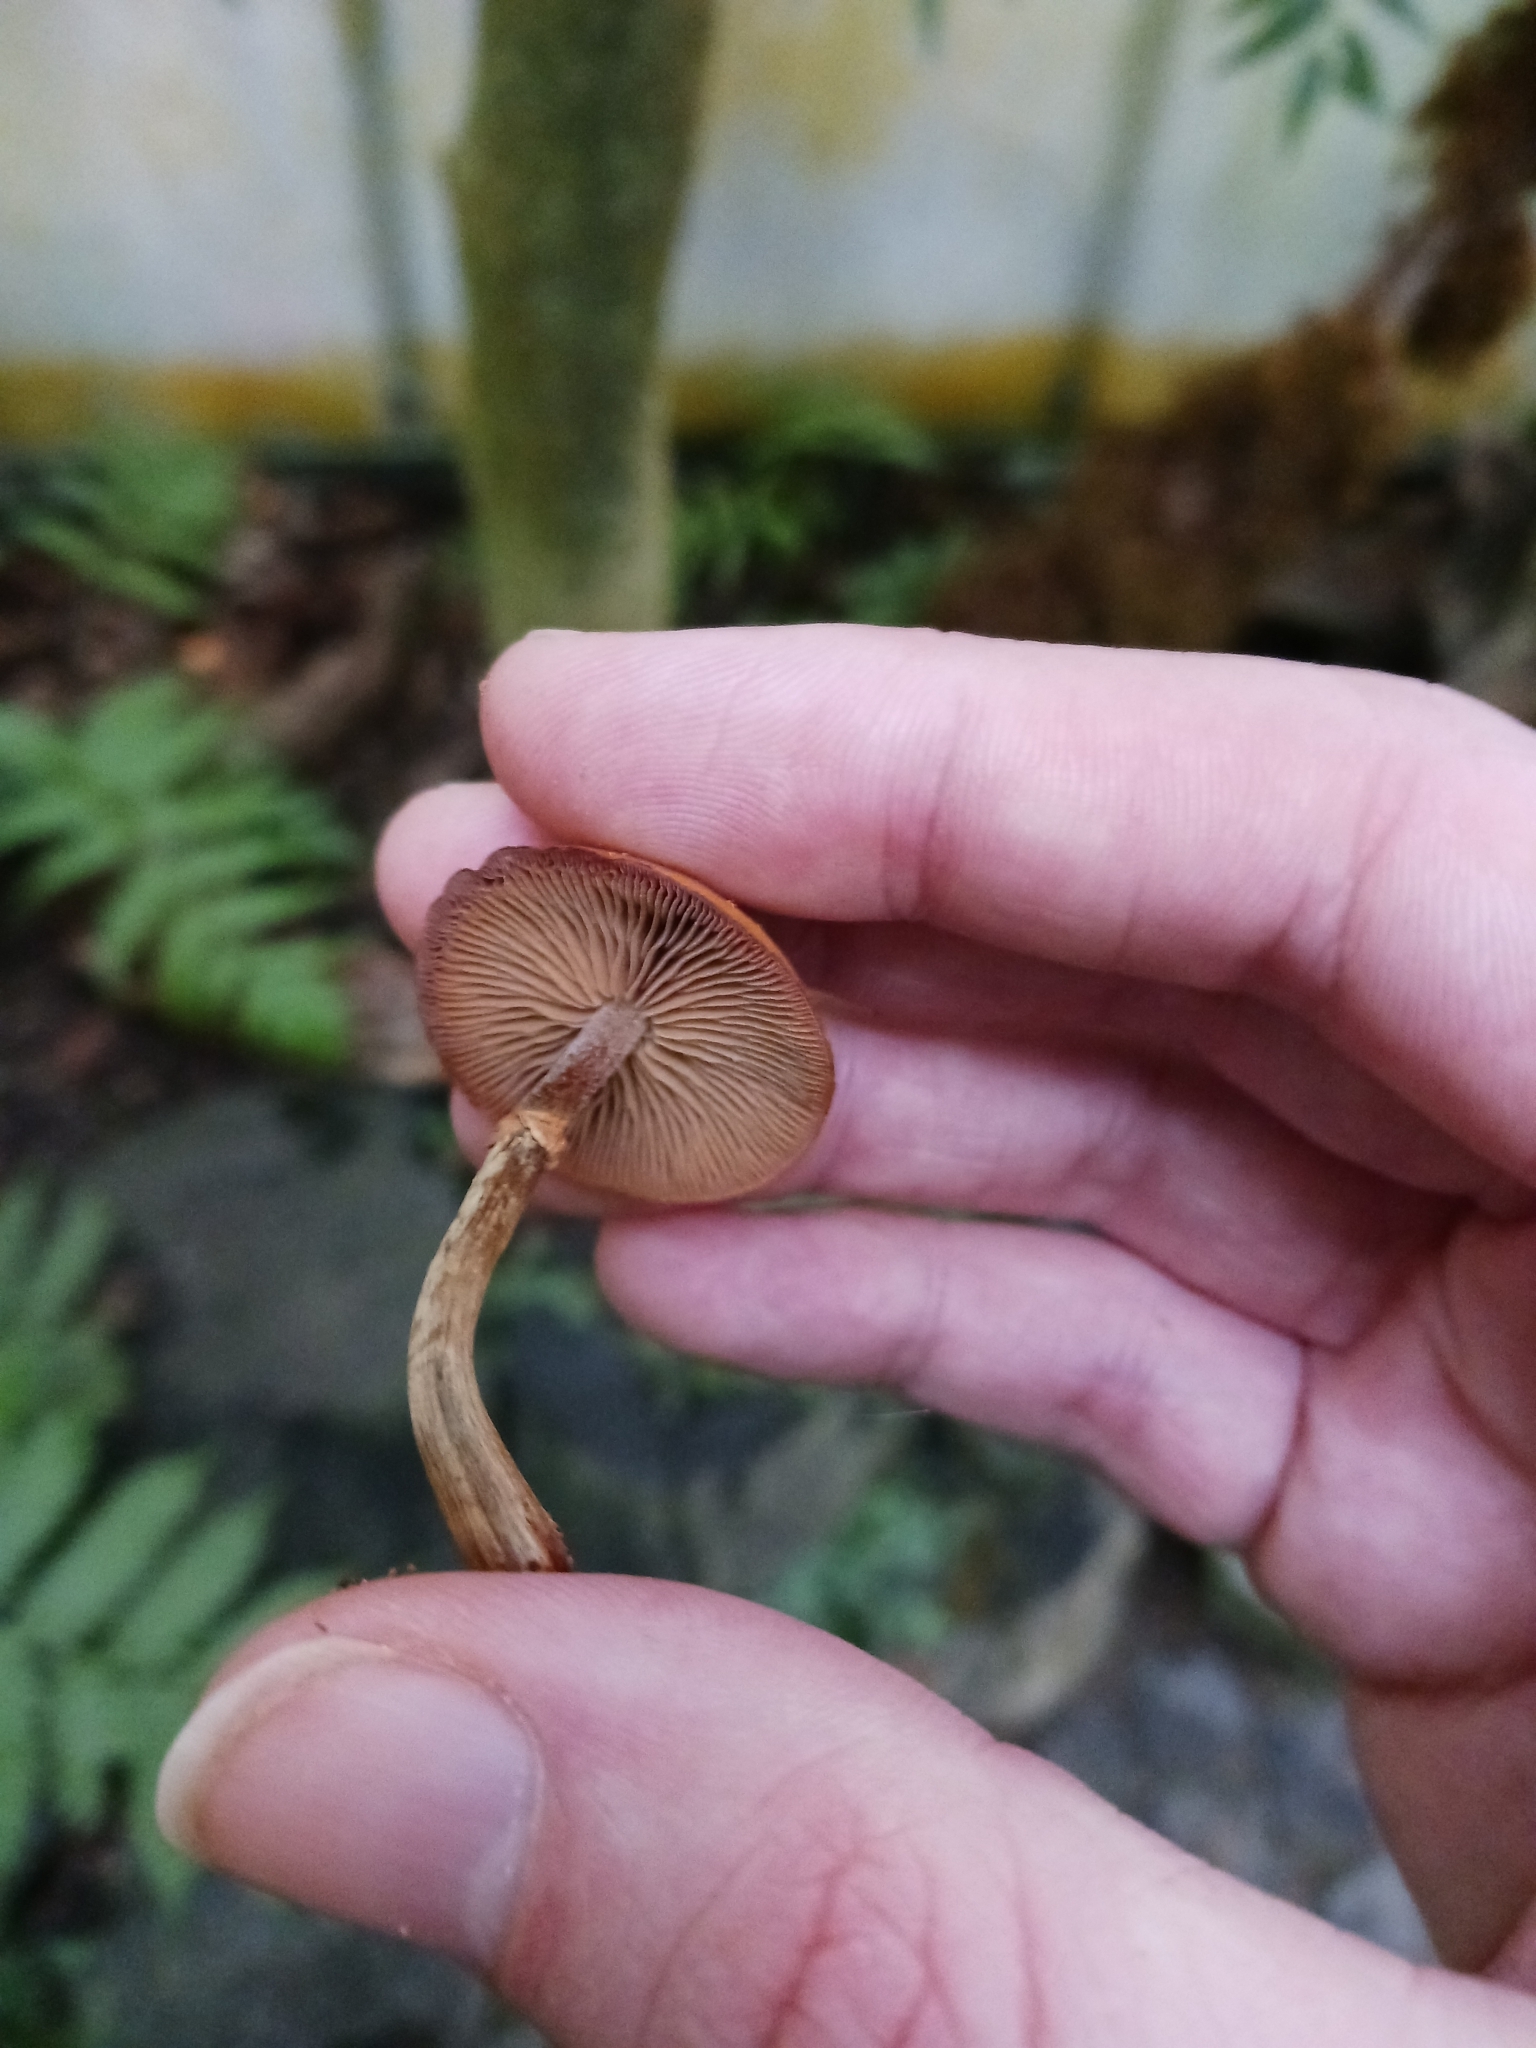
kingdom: Fungi
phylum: Basidiomycota
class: Agaricomycetes
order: Agaricales
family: Hymenogastraceae
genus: Galerina
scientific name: Galerina marginata
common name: Funeral bell
